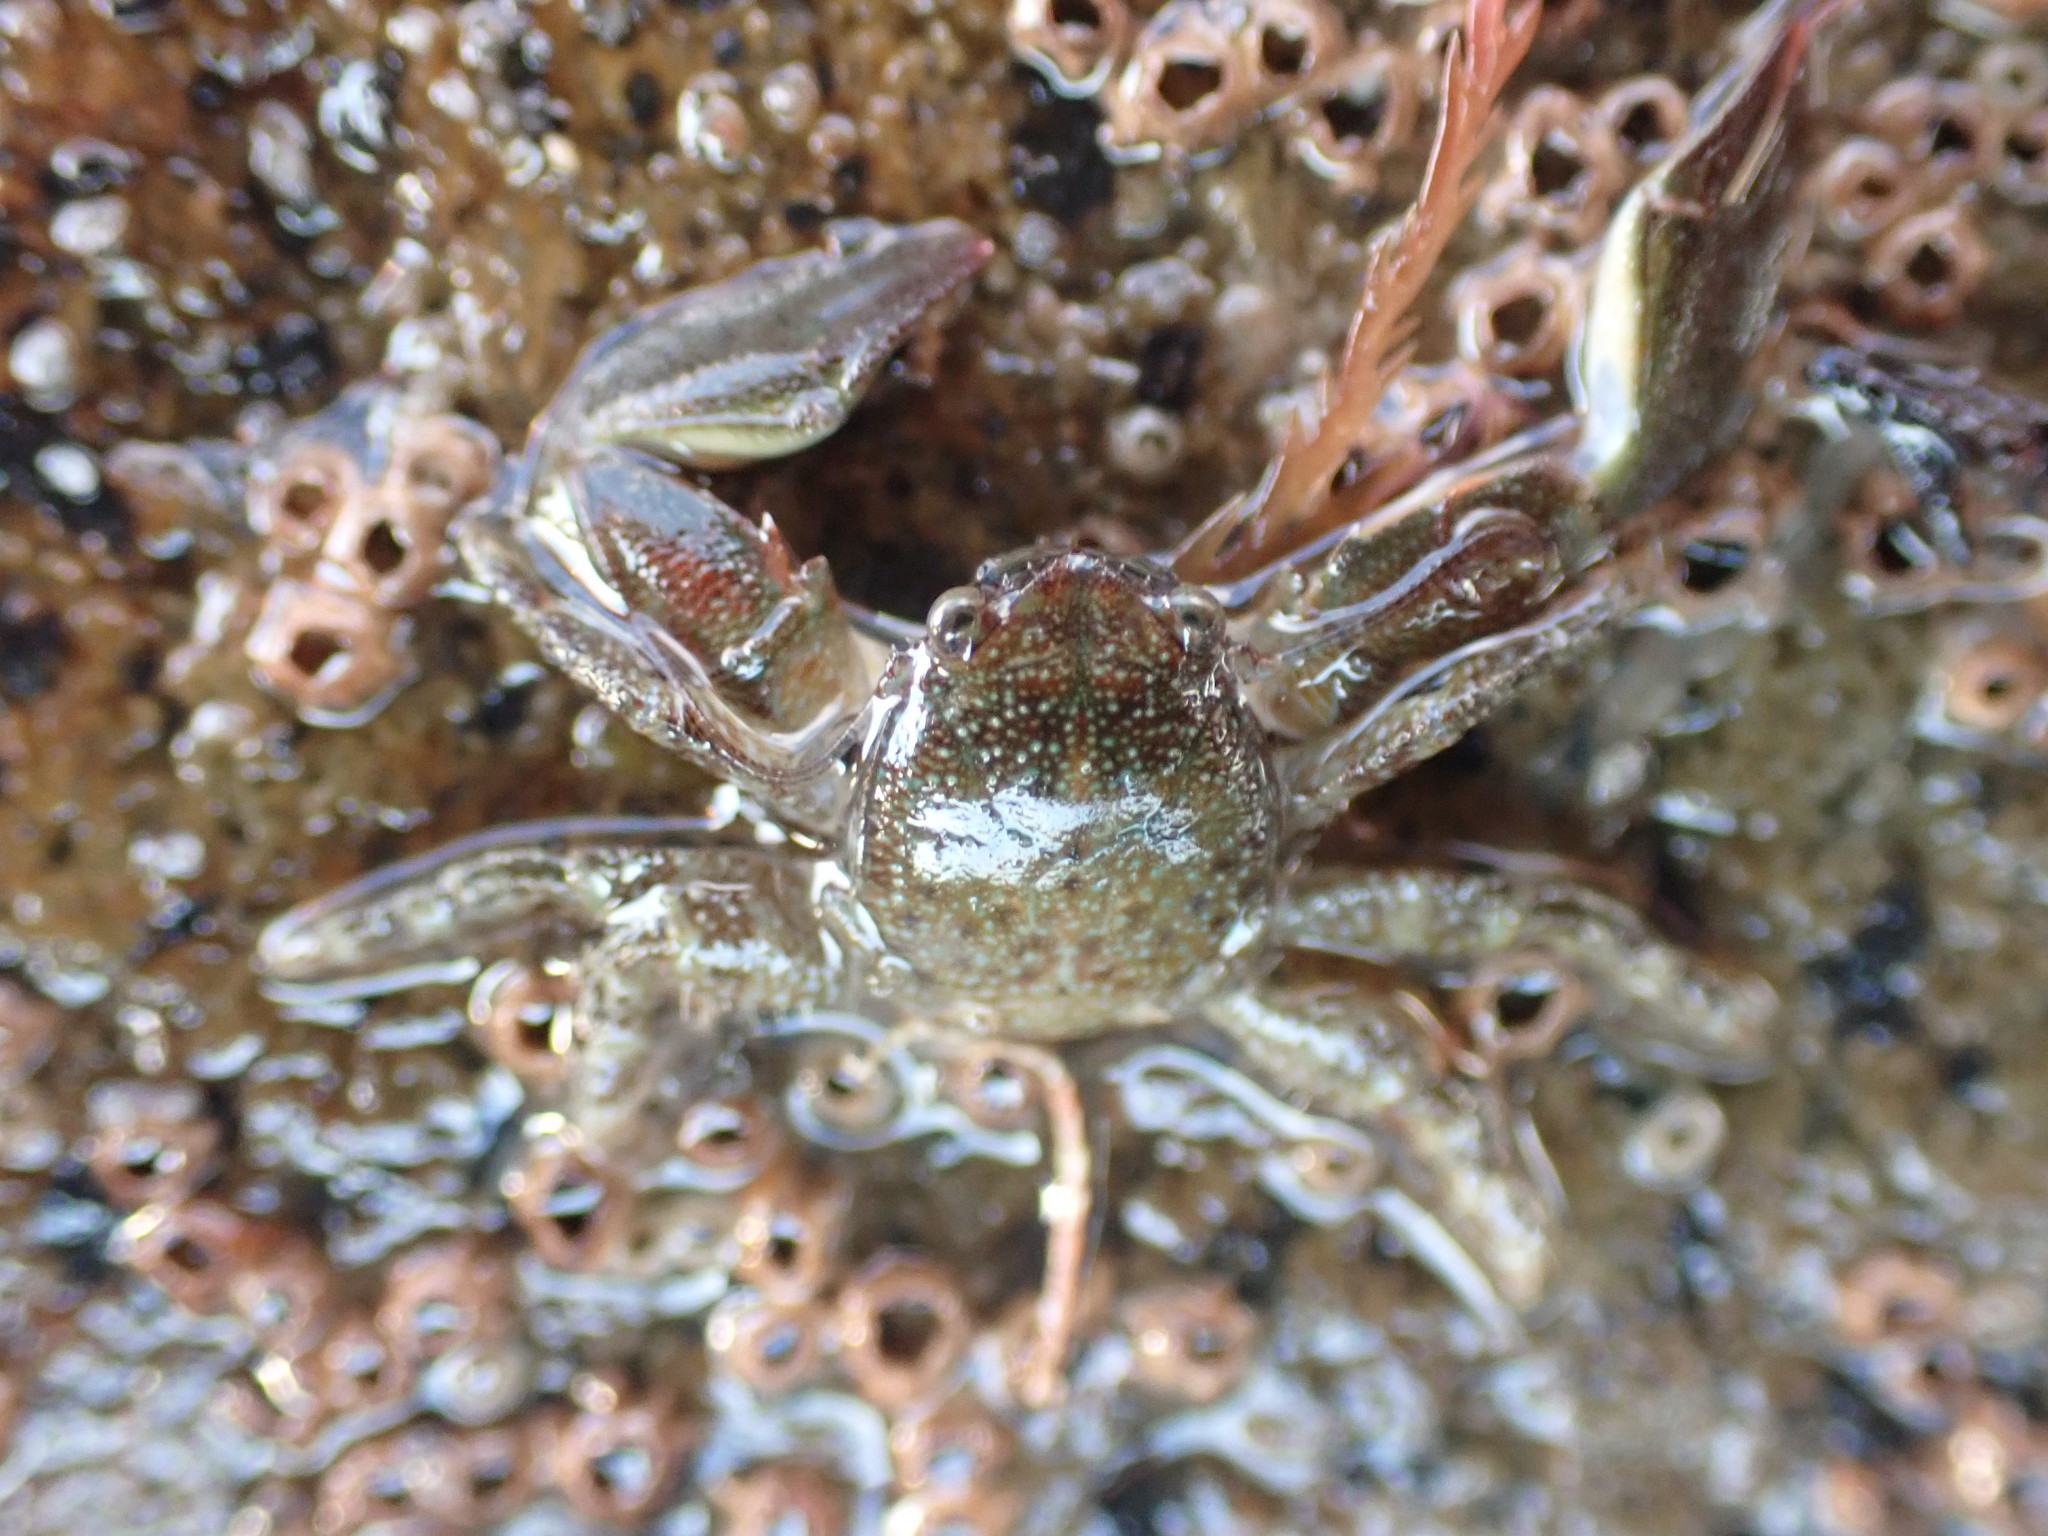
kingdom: Animalia
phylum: Arthropoda
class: Malacostraca
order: Decapoda
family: Porcellanidae
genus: Petrolisthes
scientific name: Petrolisthes elongatus
